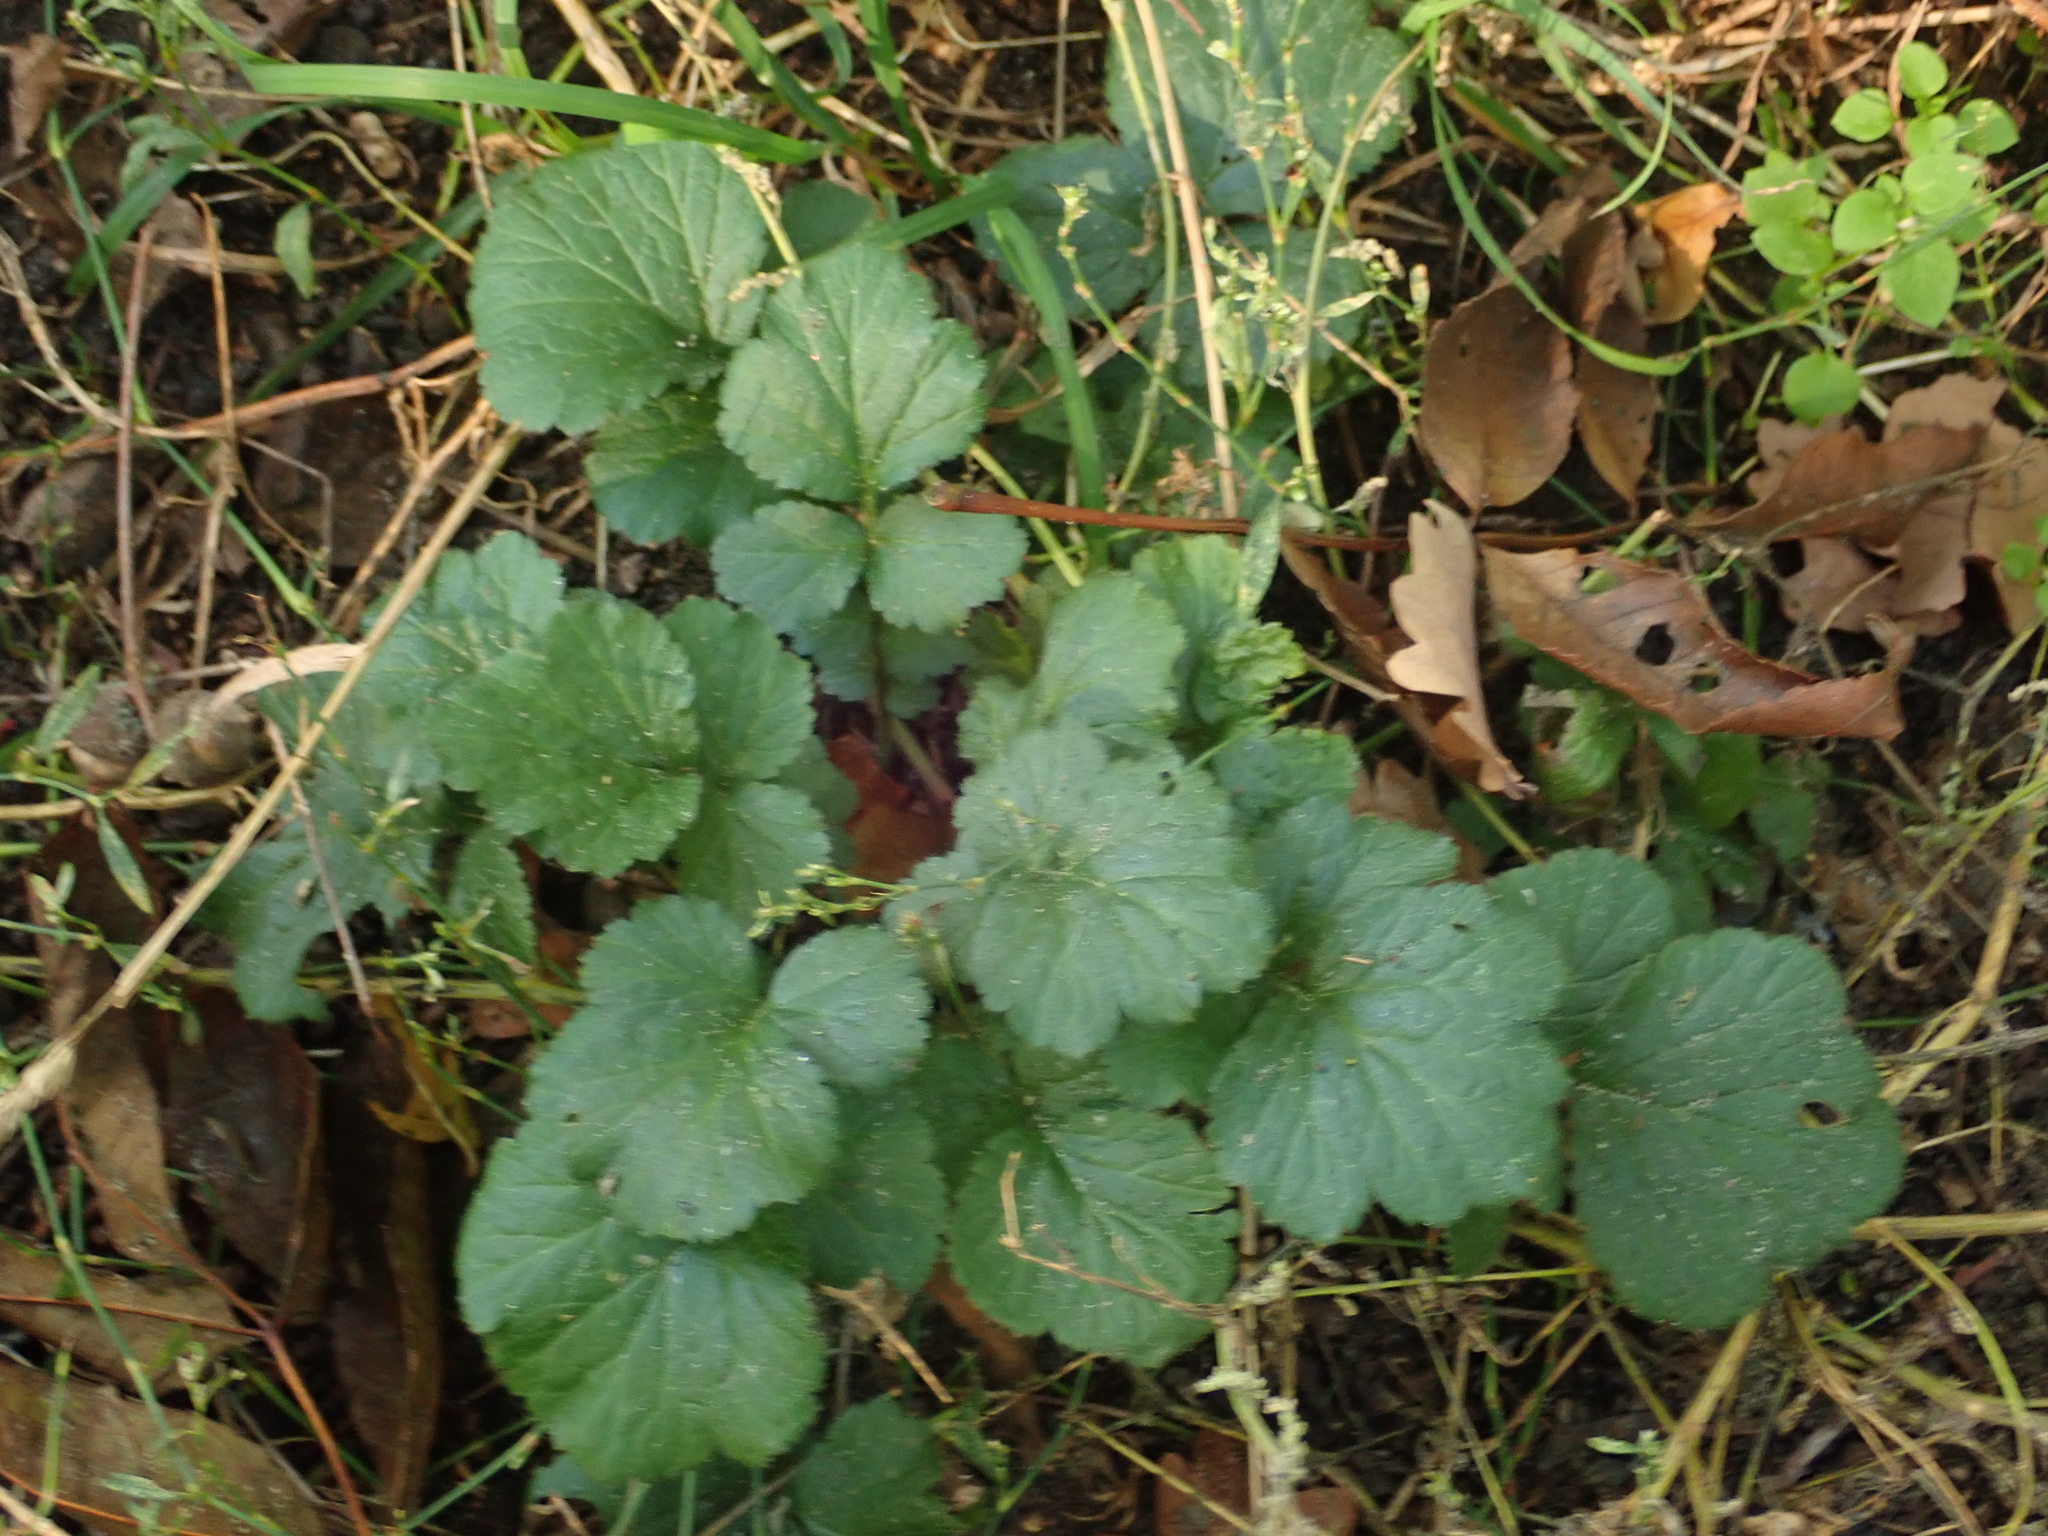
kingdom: Plantae
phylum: Tracheophyta
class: Magnoliopsida
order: Rosales
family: Rosaceae
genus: Geum
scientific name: Geum urbanum
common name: Wood avens
